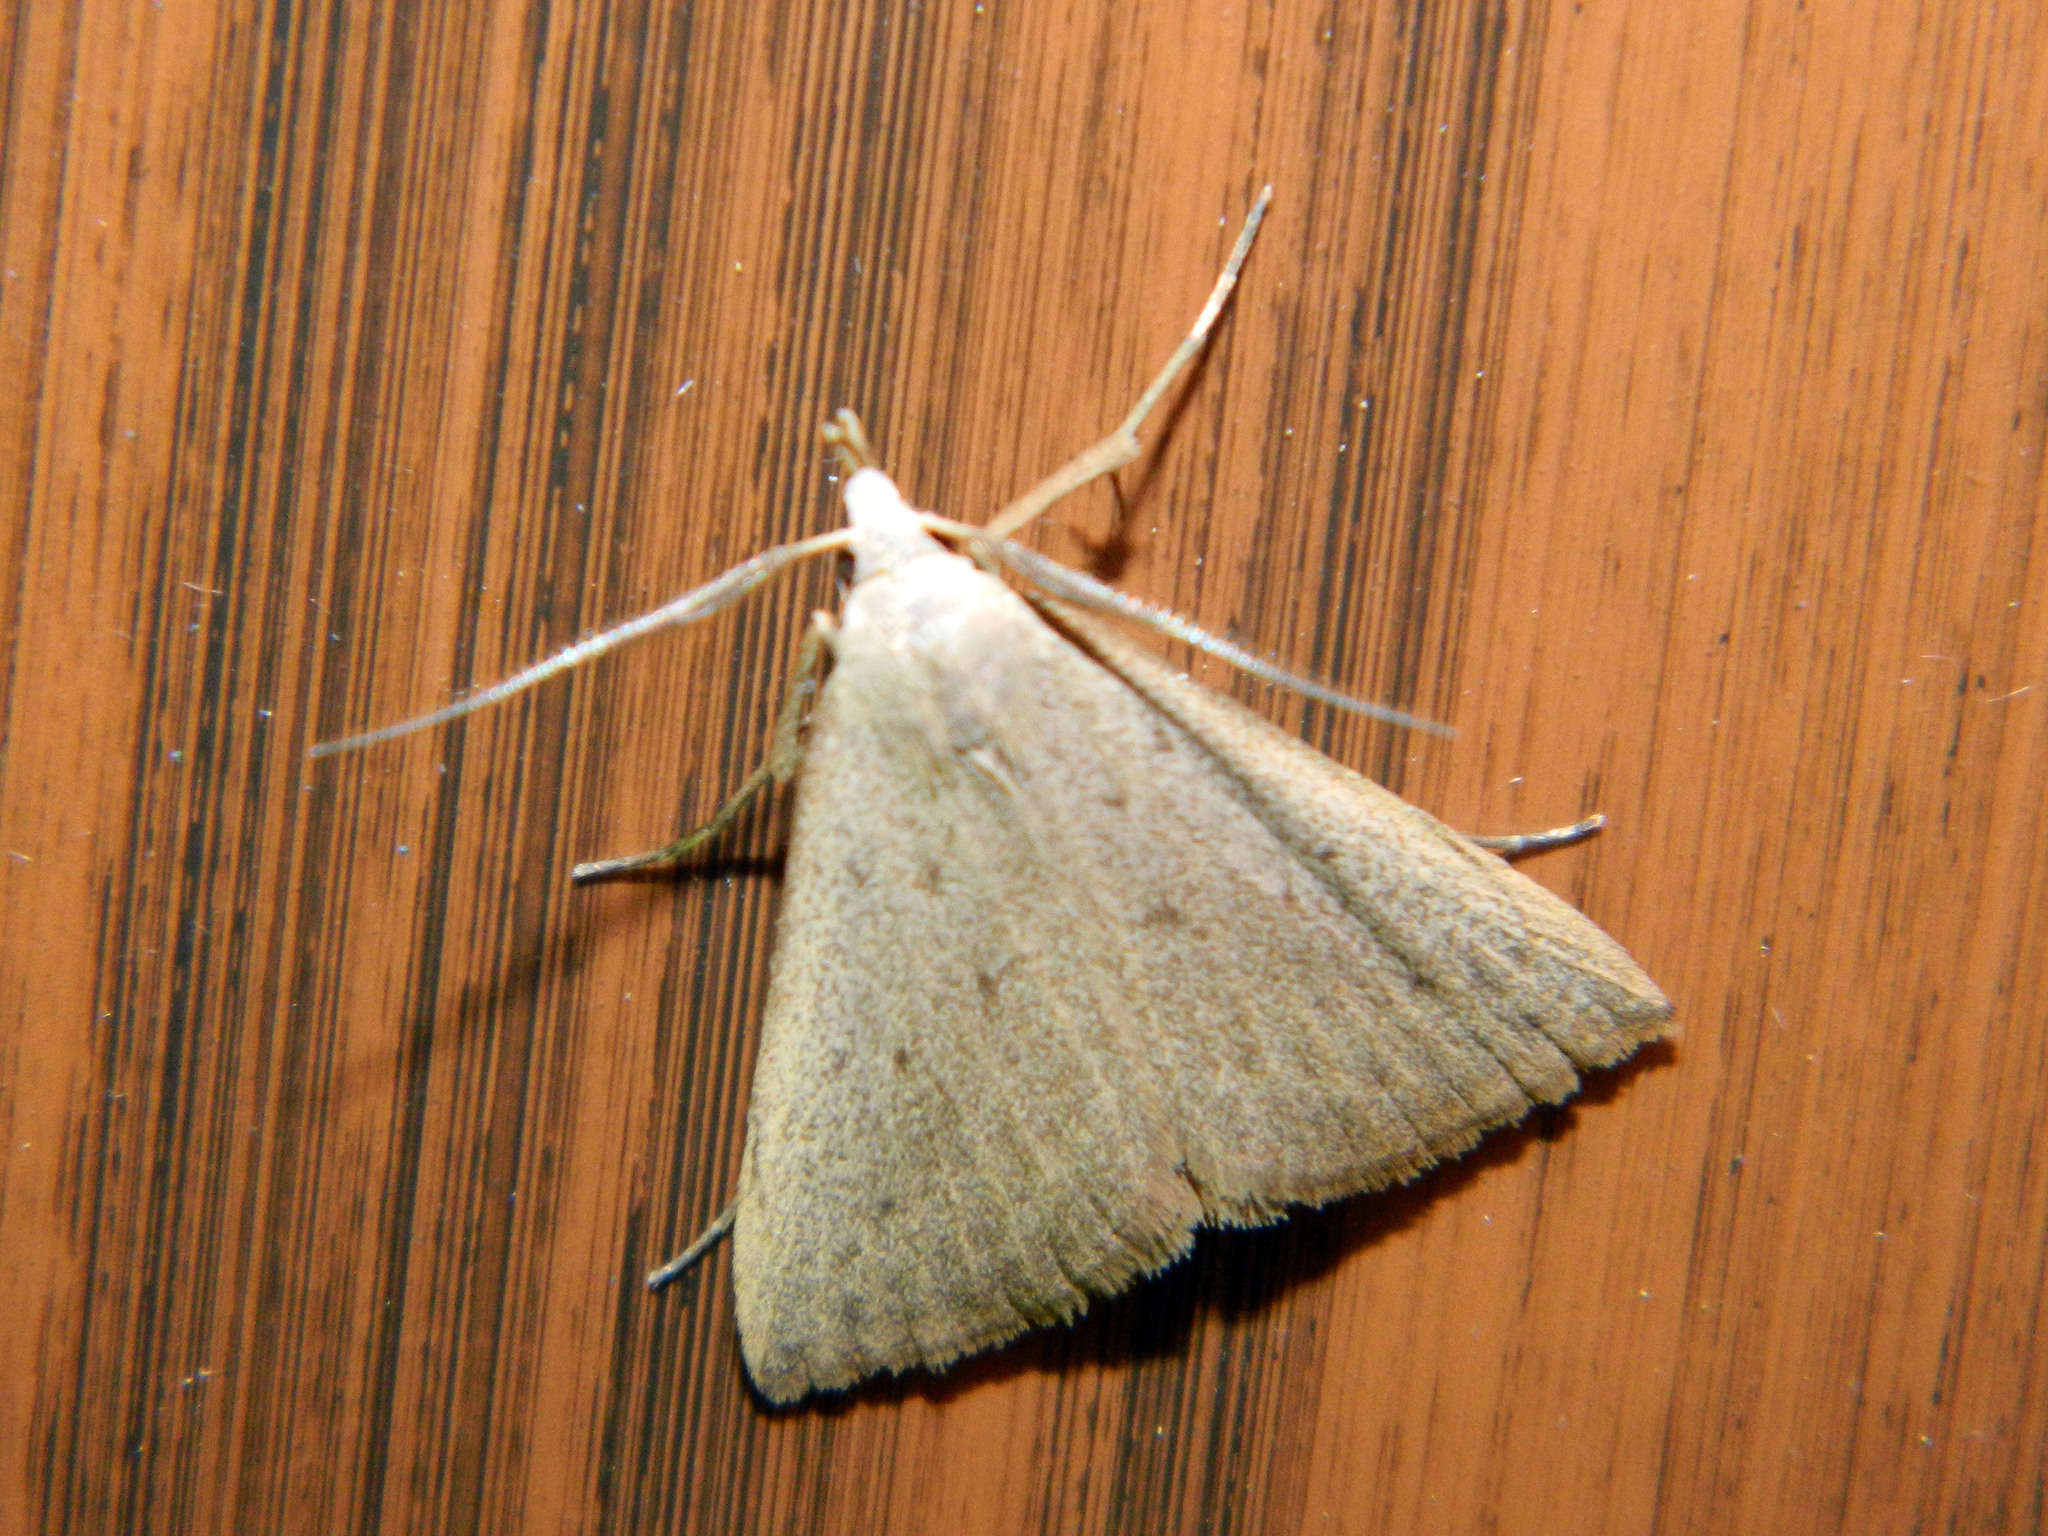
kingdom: Animalia
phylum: Arthropoda
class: Insecta
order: Lepidoptera
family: Erebidae
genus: Macrochilo
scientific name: Macrochilo louisiana
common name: Louisiana macrochilo
